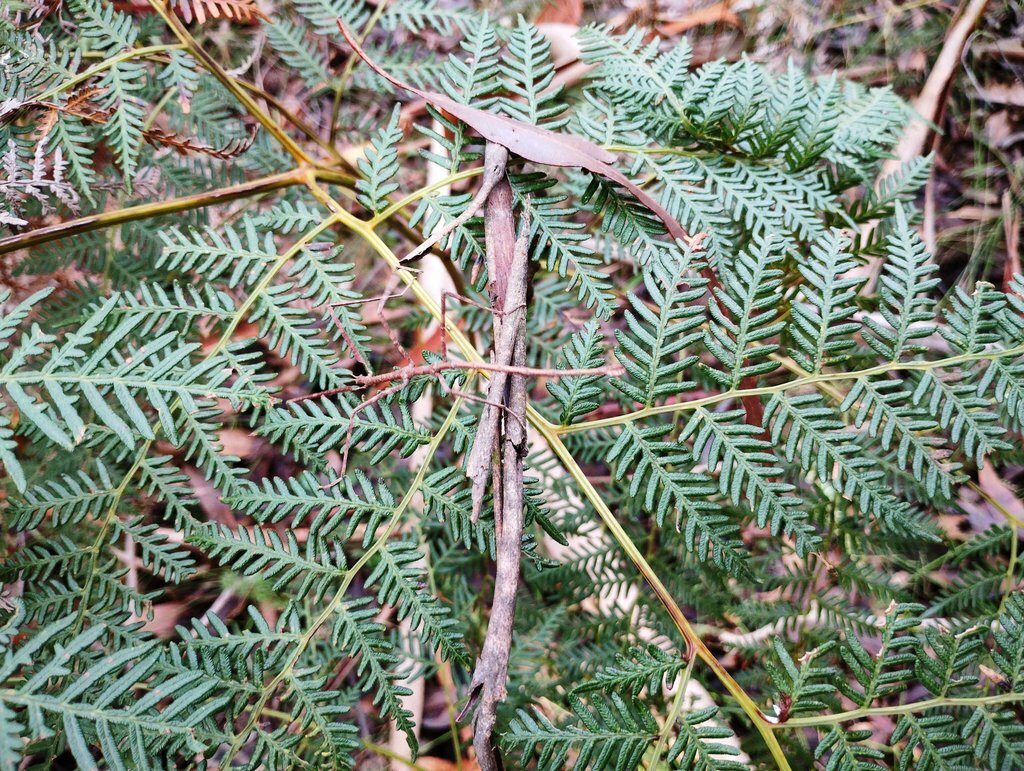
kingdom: Animalia
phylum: Arthropoda
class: Insecta
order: Phasmida
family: Phasmatidae
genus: Ctenomorpha
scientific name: Ctenomorpha marginipennis
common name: Margined-winged stick-insect
